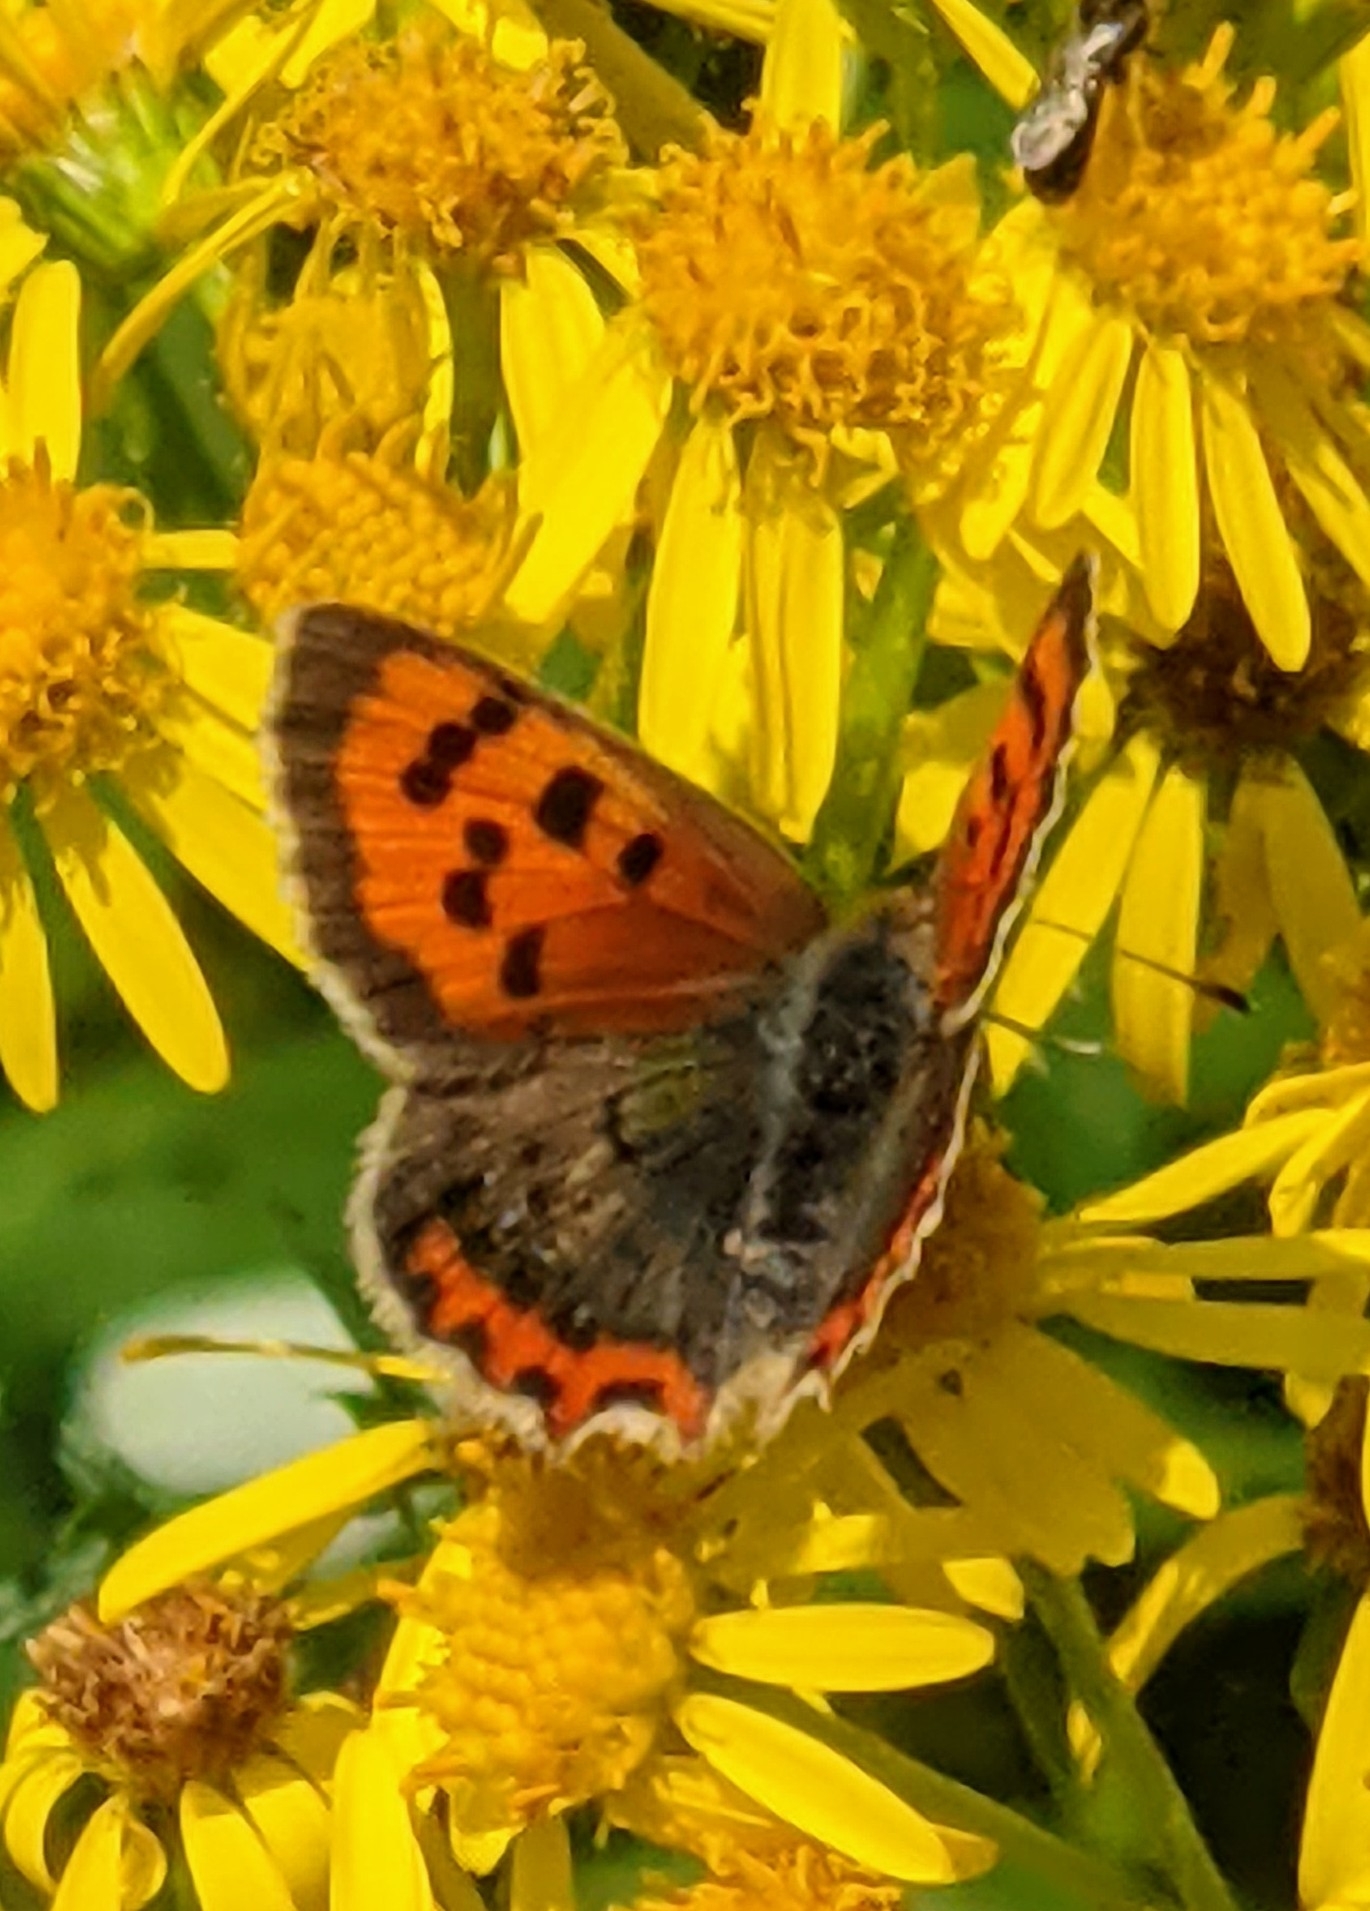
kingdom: Animalia
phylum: Arthropoda
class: Insecta
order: Lepidoptera
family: Lycaenidae
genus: Lycaena
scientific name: Lycaena phlaeas
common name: Small copper
